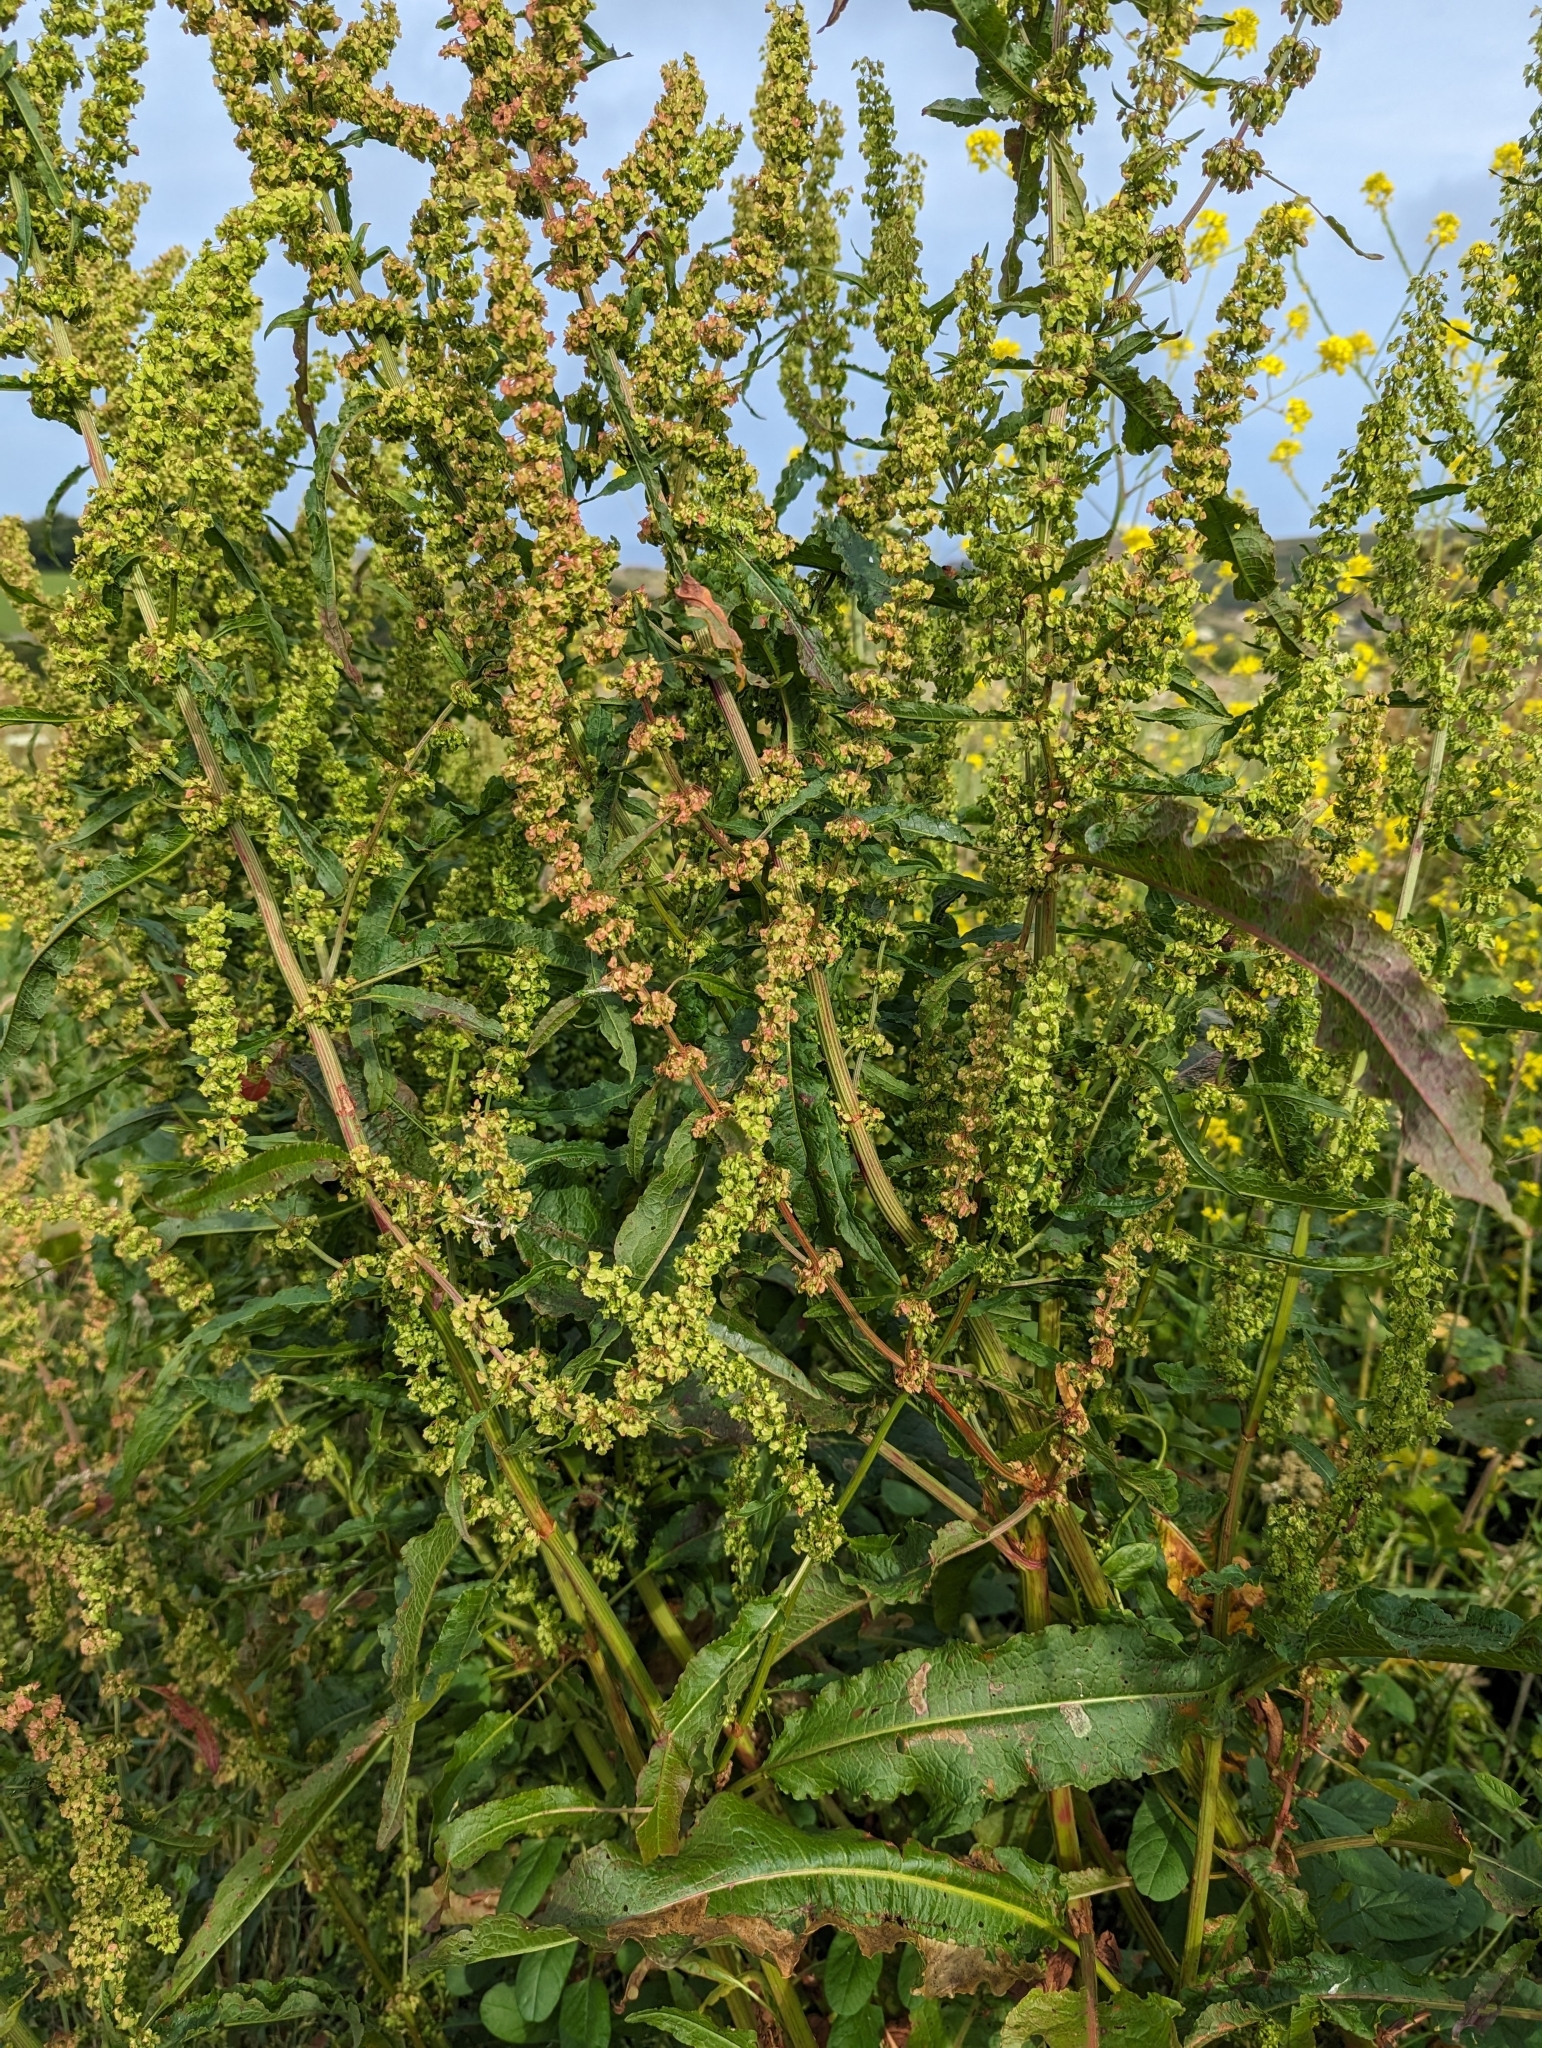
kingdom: Plantae
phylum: Tracheophyta
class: Magnoliopsida
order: Caryophyllales
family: Polygonaceae
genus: Rumex
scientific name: Rumex crispus
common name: Curled dock
